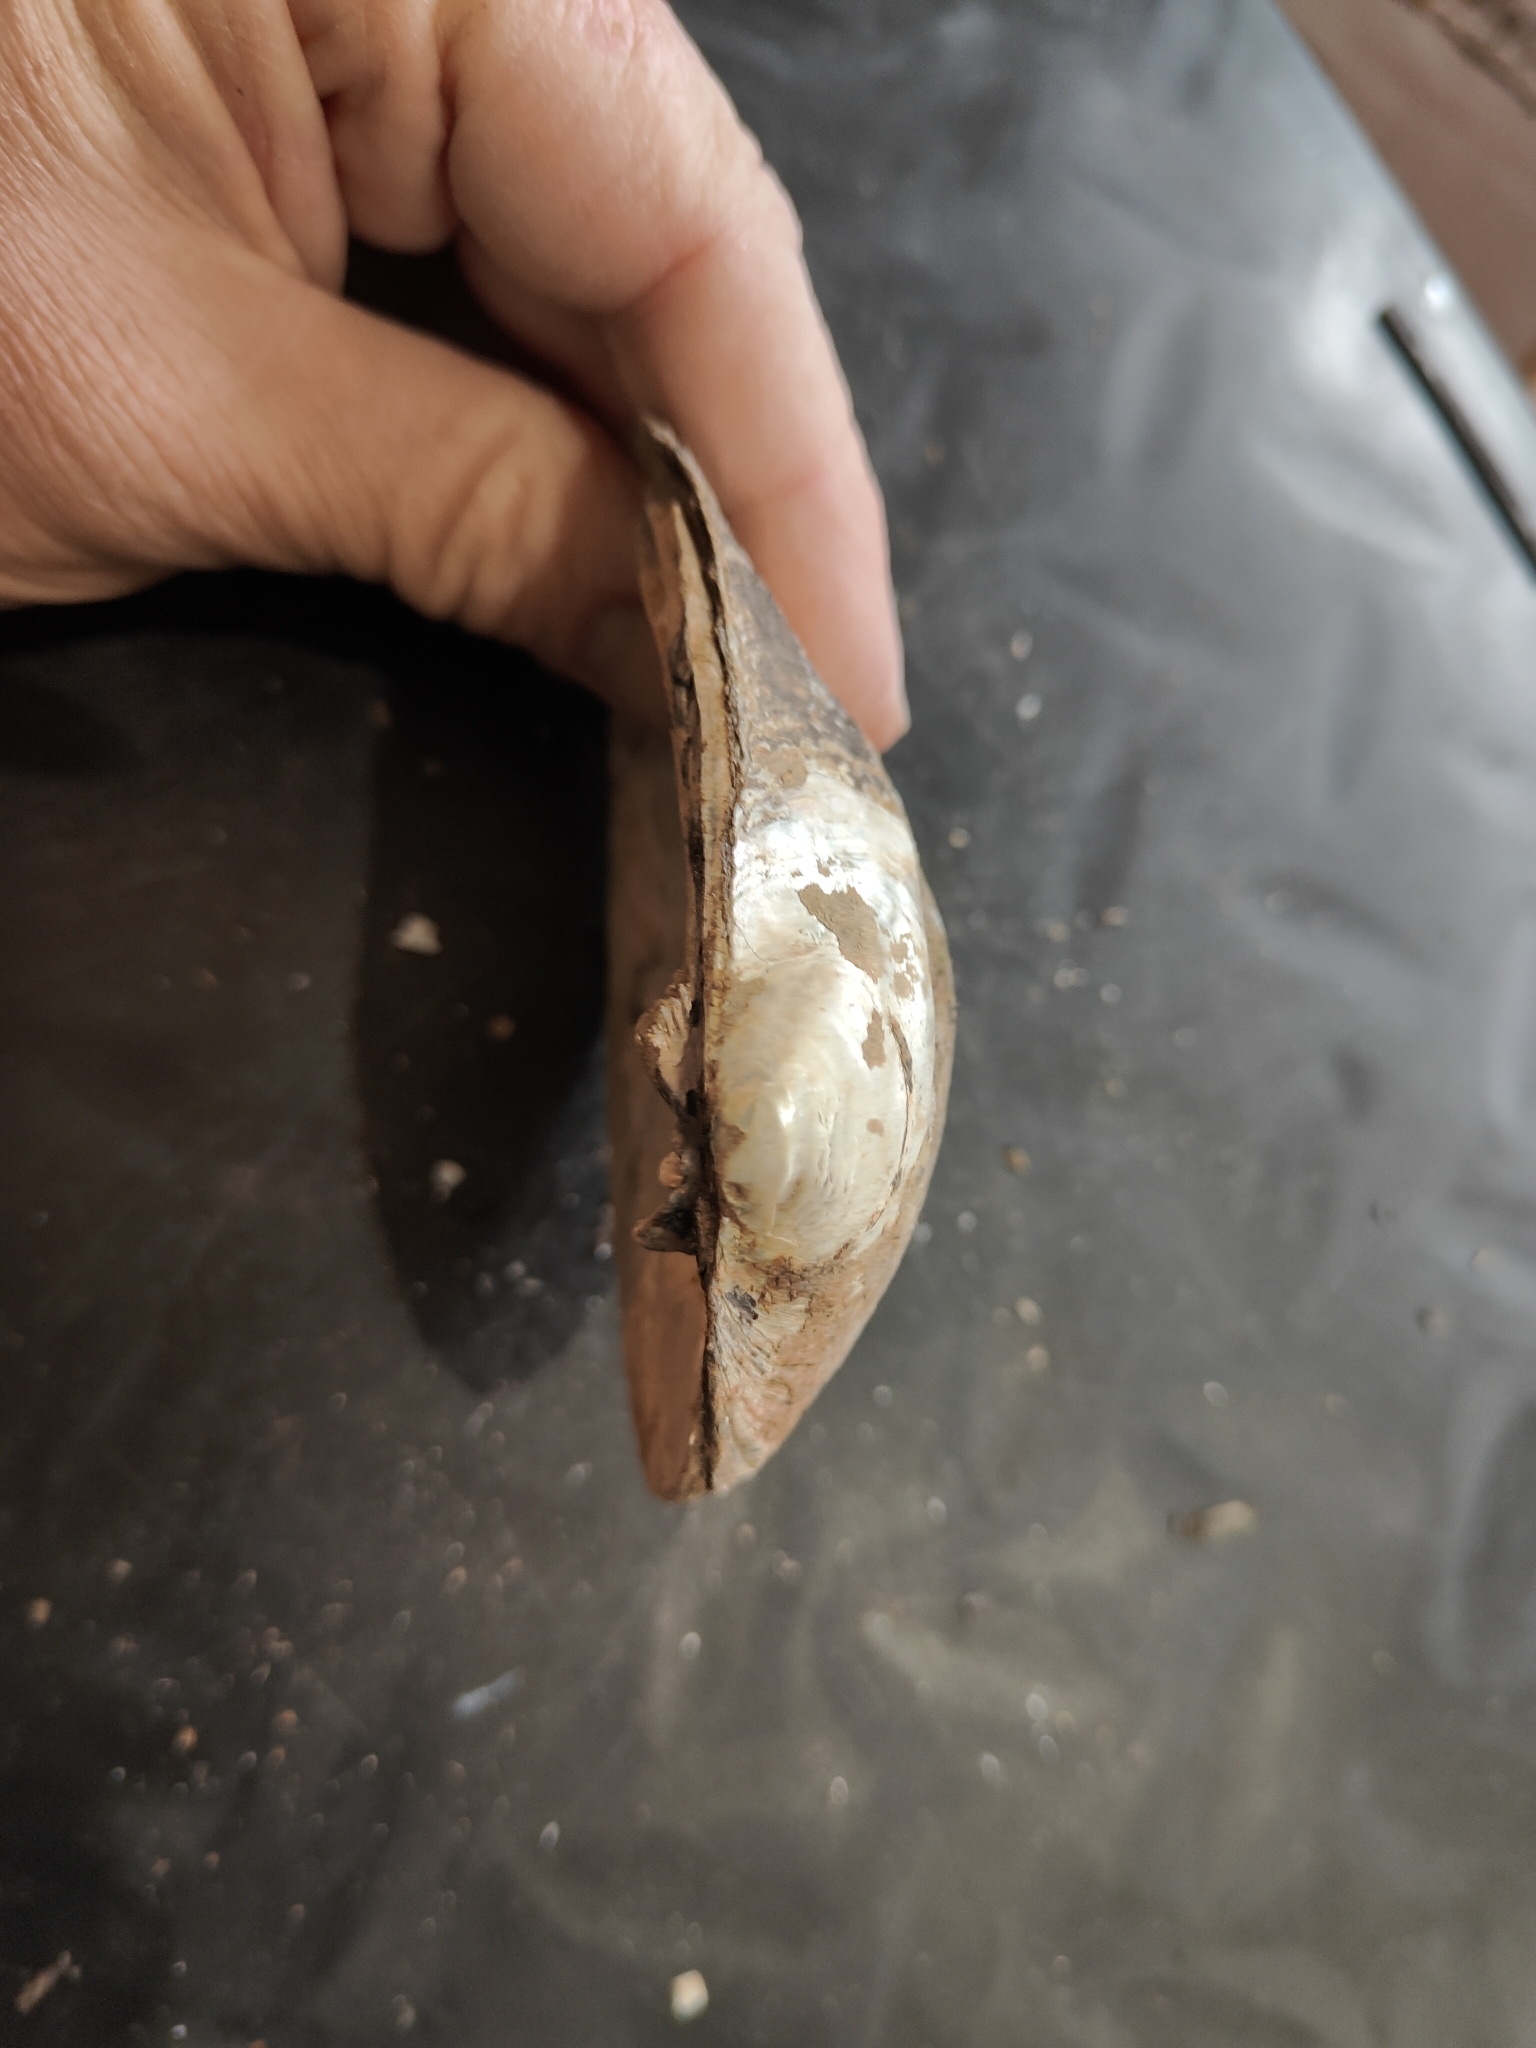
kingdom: Animalia
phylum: Mollusca
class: Bivalvia
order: Unionida
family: Unionidae
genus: Amblema
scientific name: Amblema plicata
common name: Threeridge
